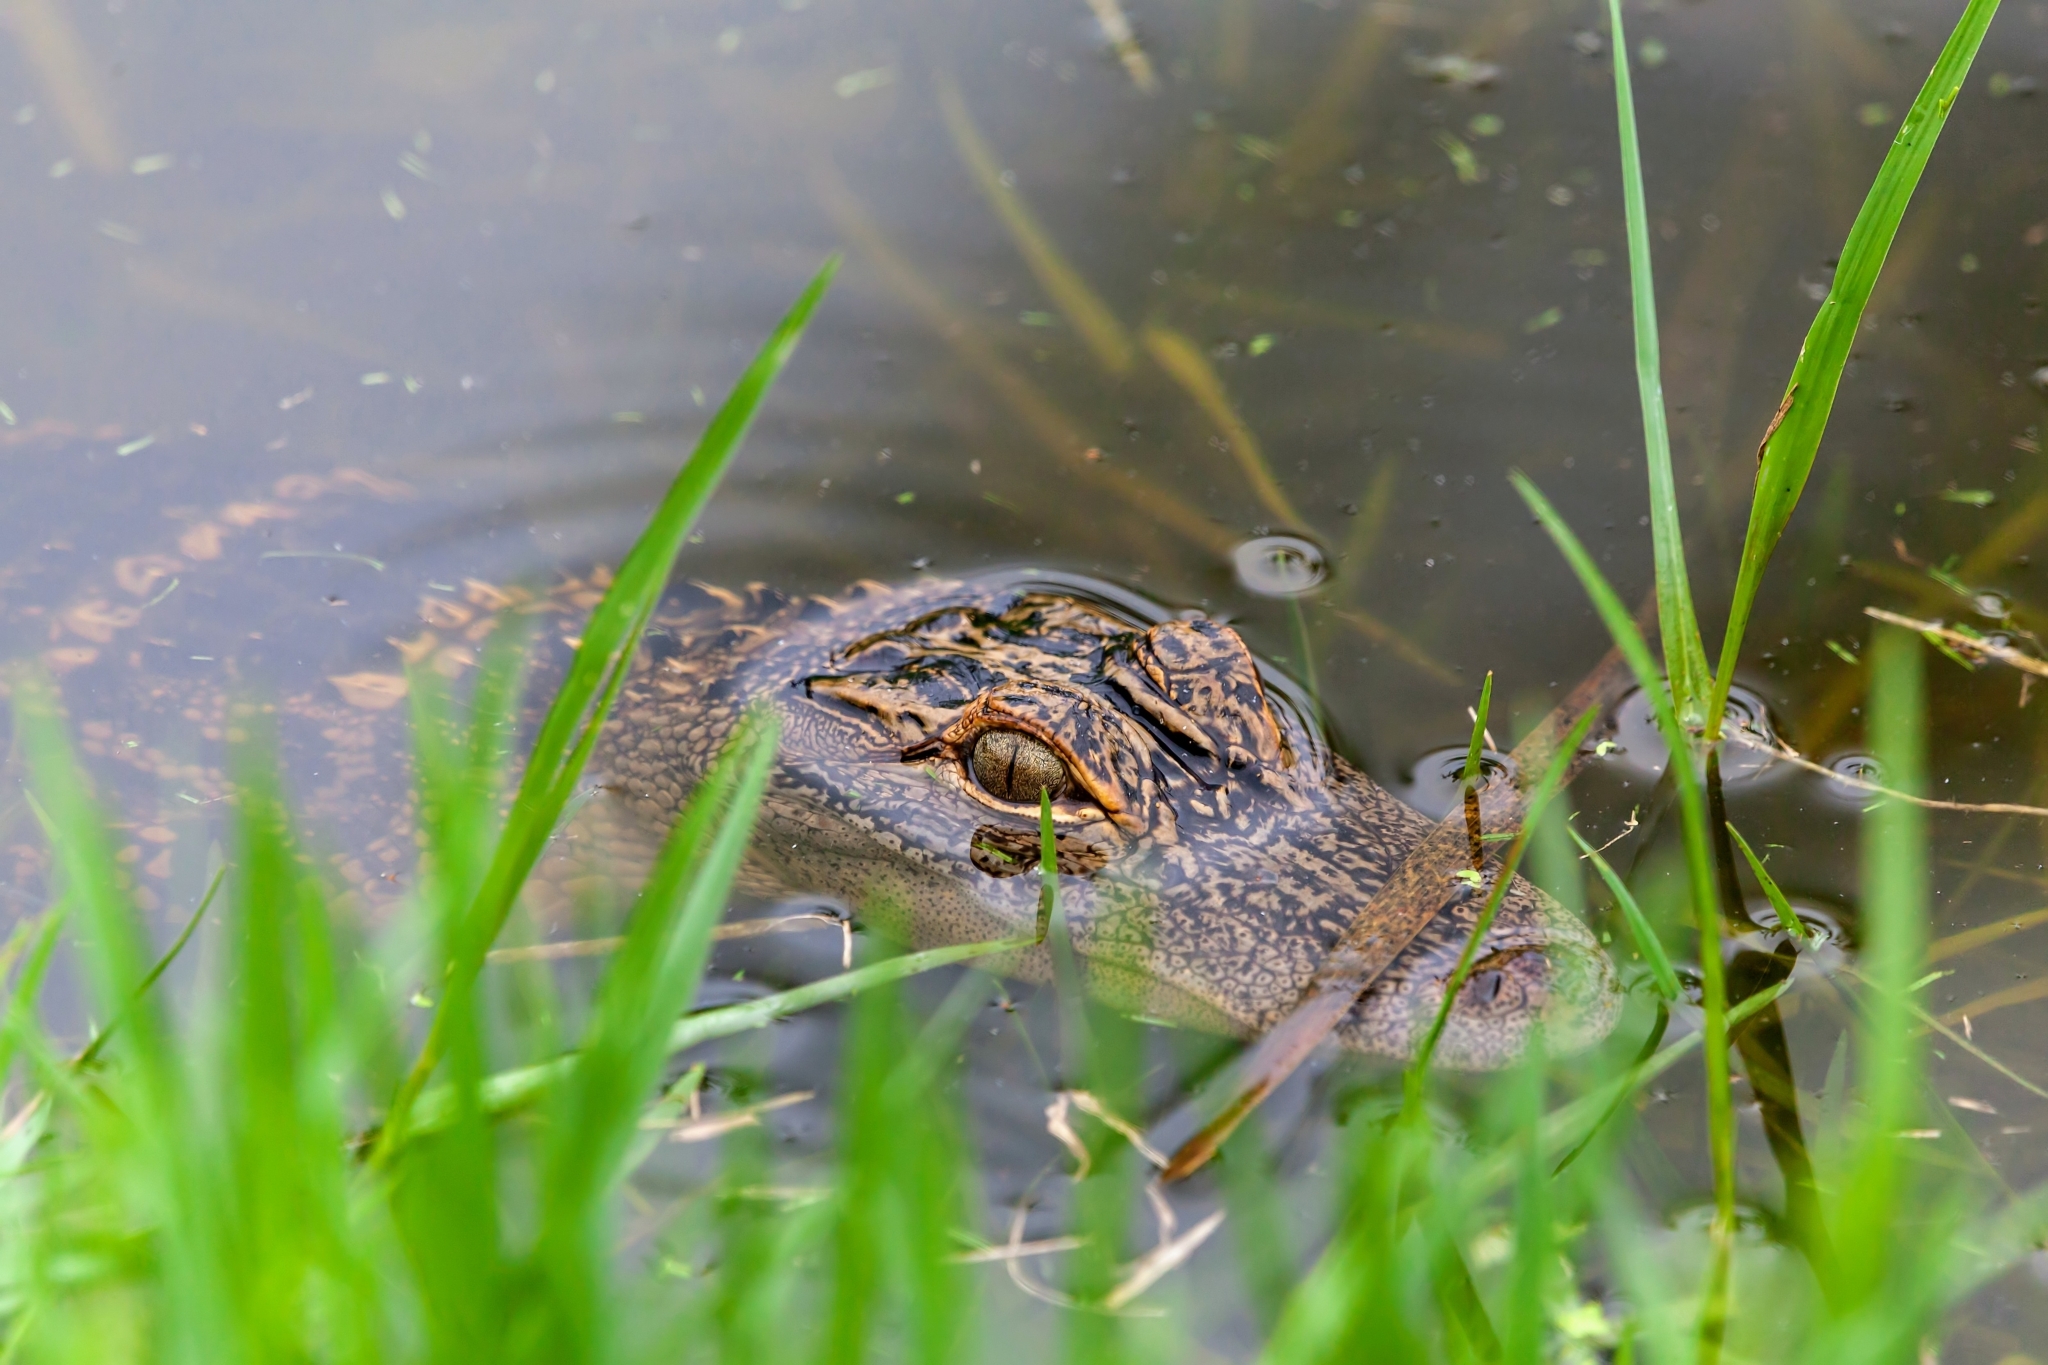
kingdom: Animalia
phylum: Chordata
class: Crocodylia
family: Alligatoridae
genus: Alligator
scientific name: Alligator mississippiensis
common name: American alligator
